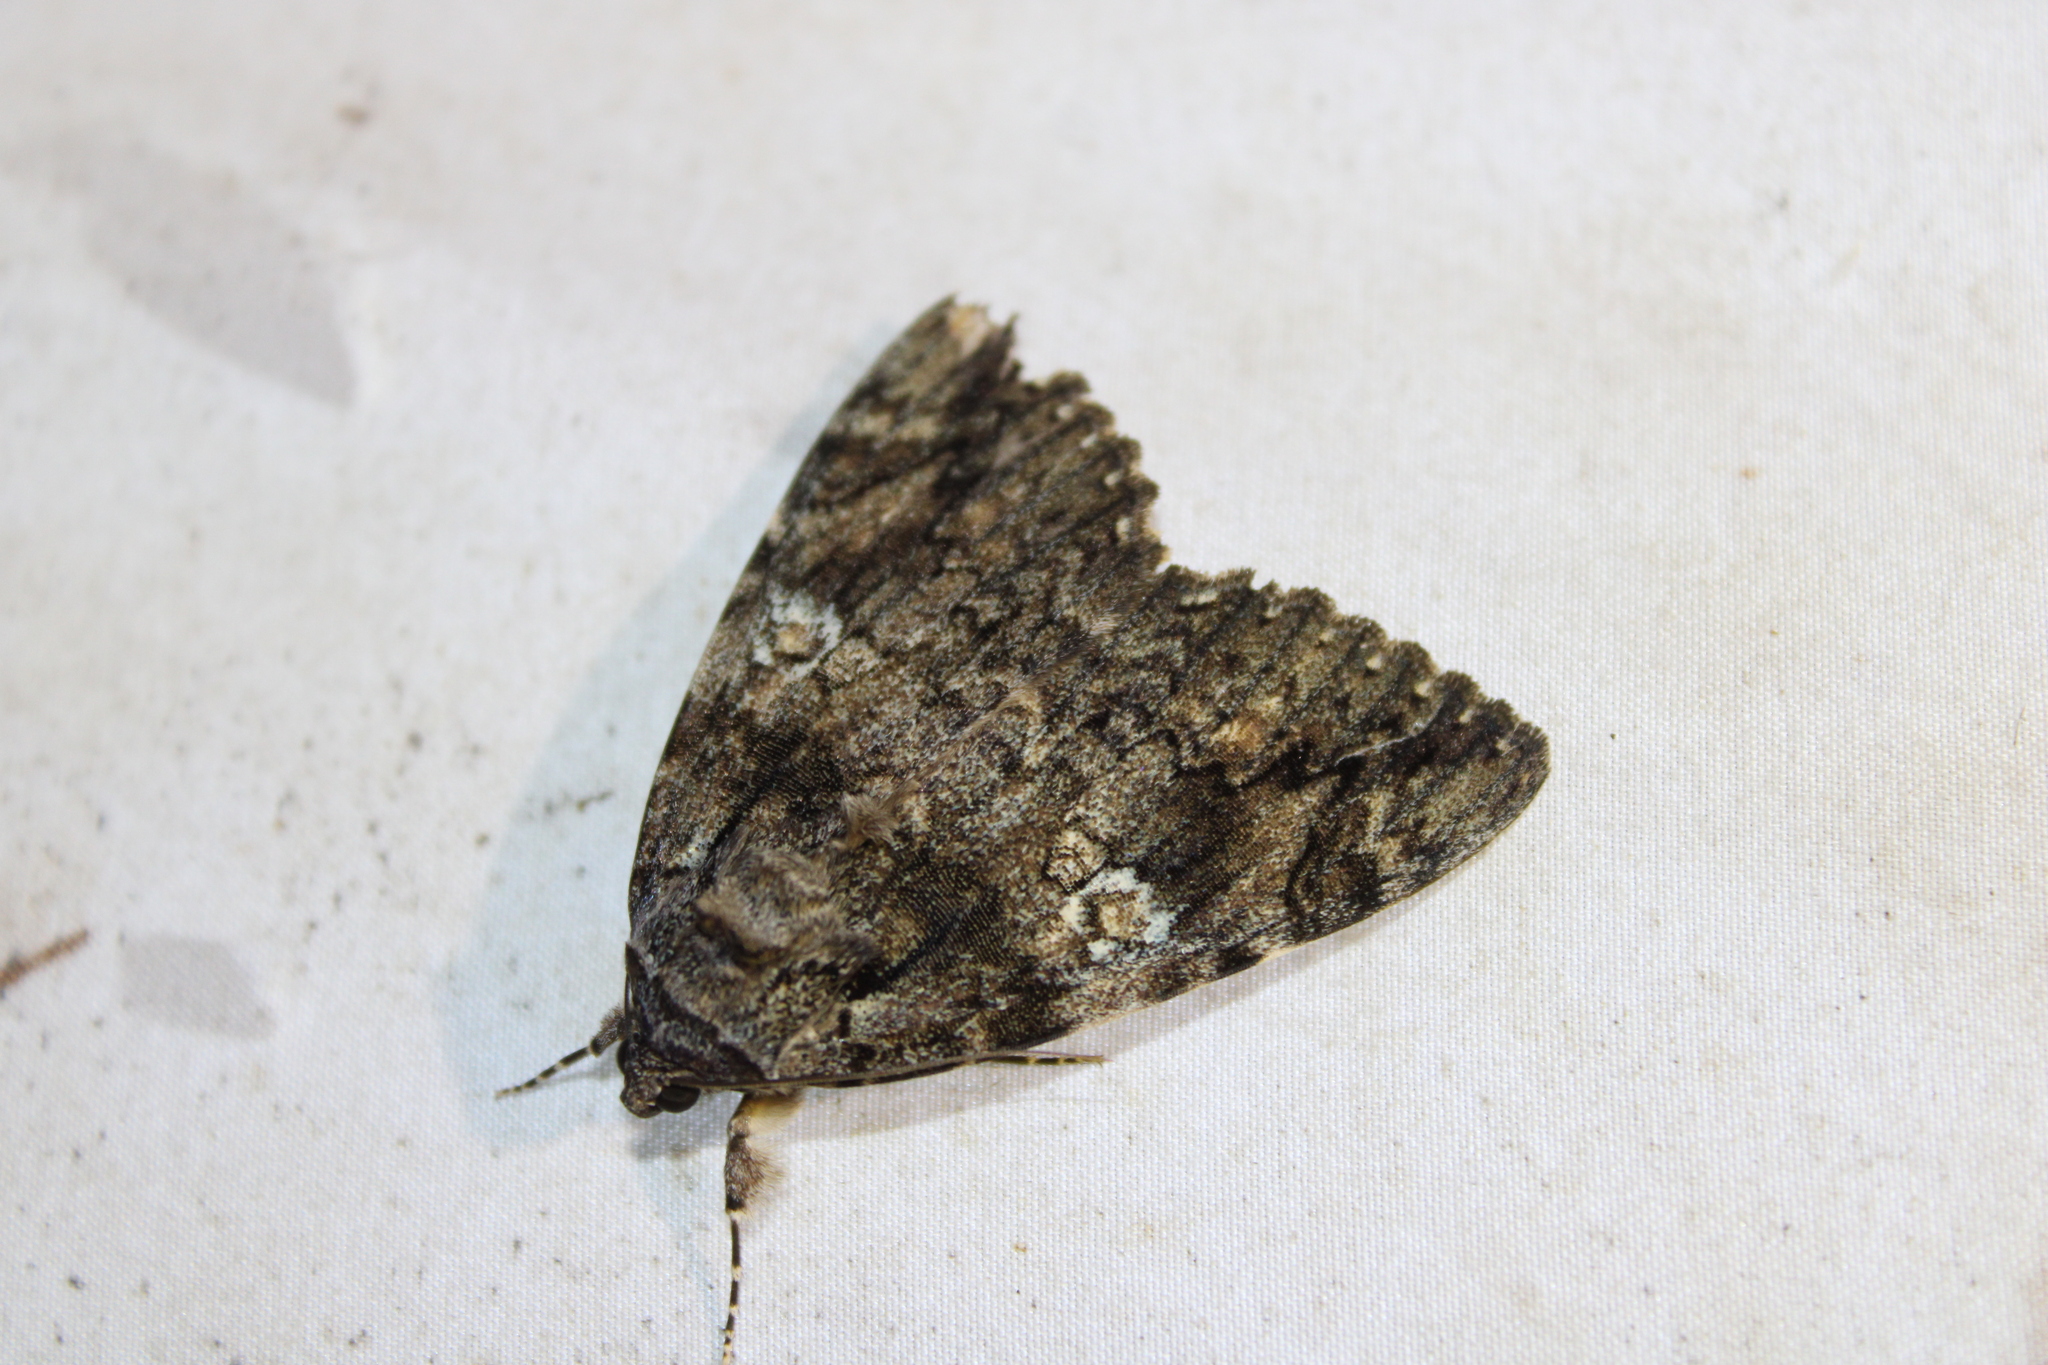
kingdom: Animalia
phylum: Arthropoda
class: Insecta
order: Lepidoptera
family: Erebidae
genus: Catocala
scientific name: Catocala ilia
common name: Ilia underwing
